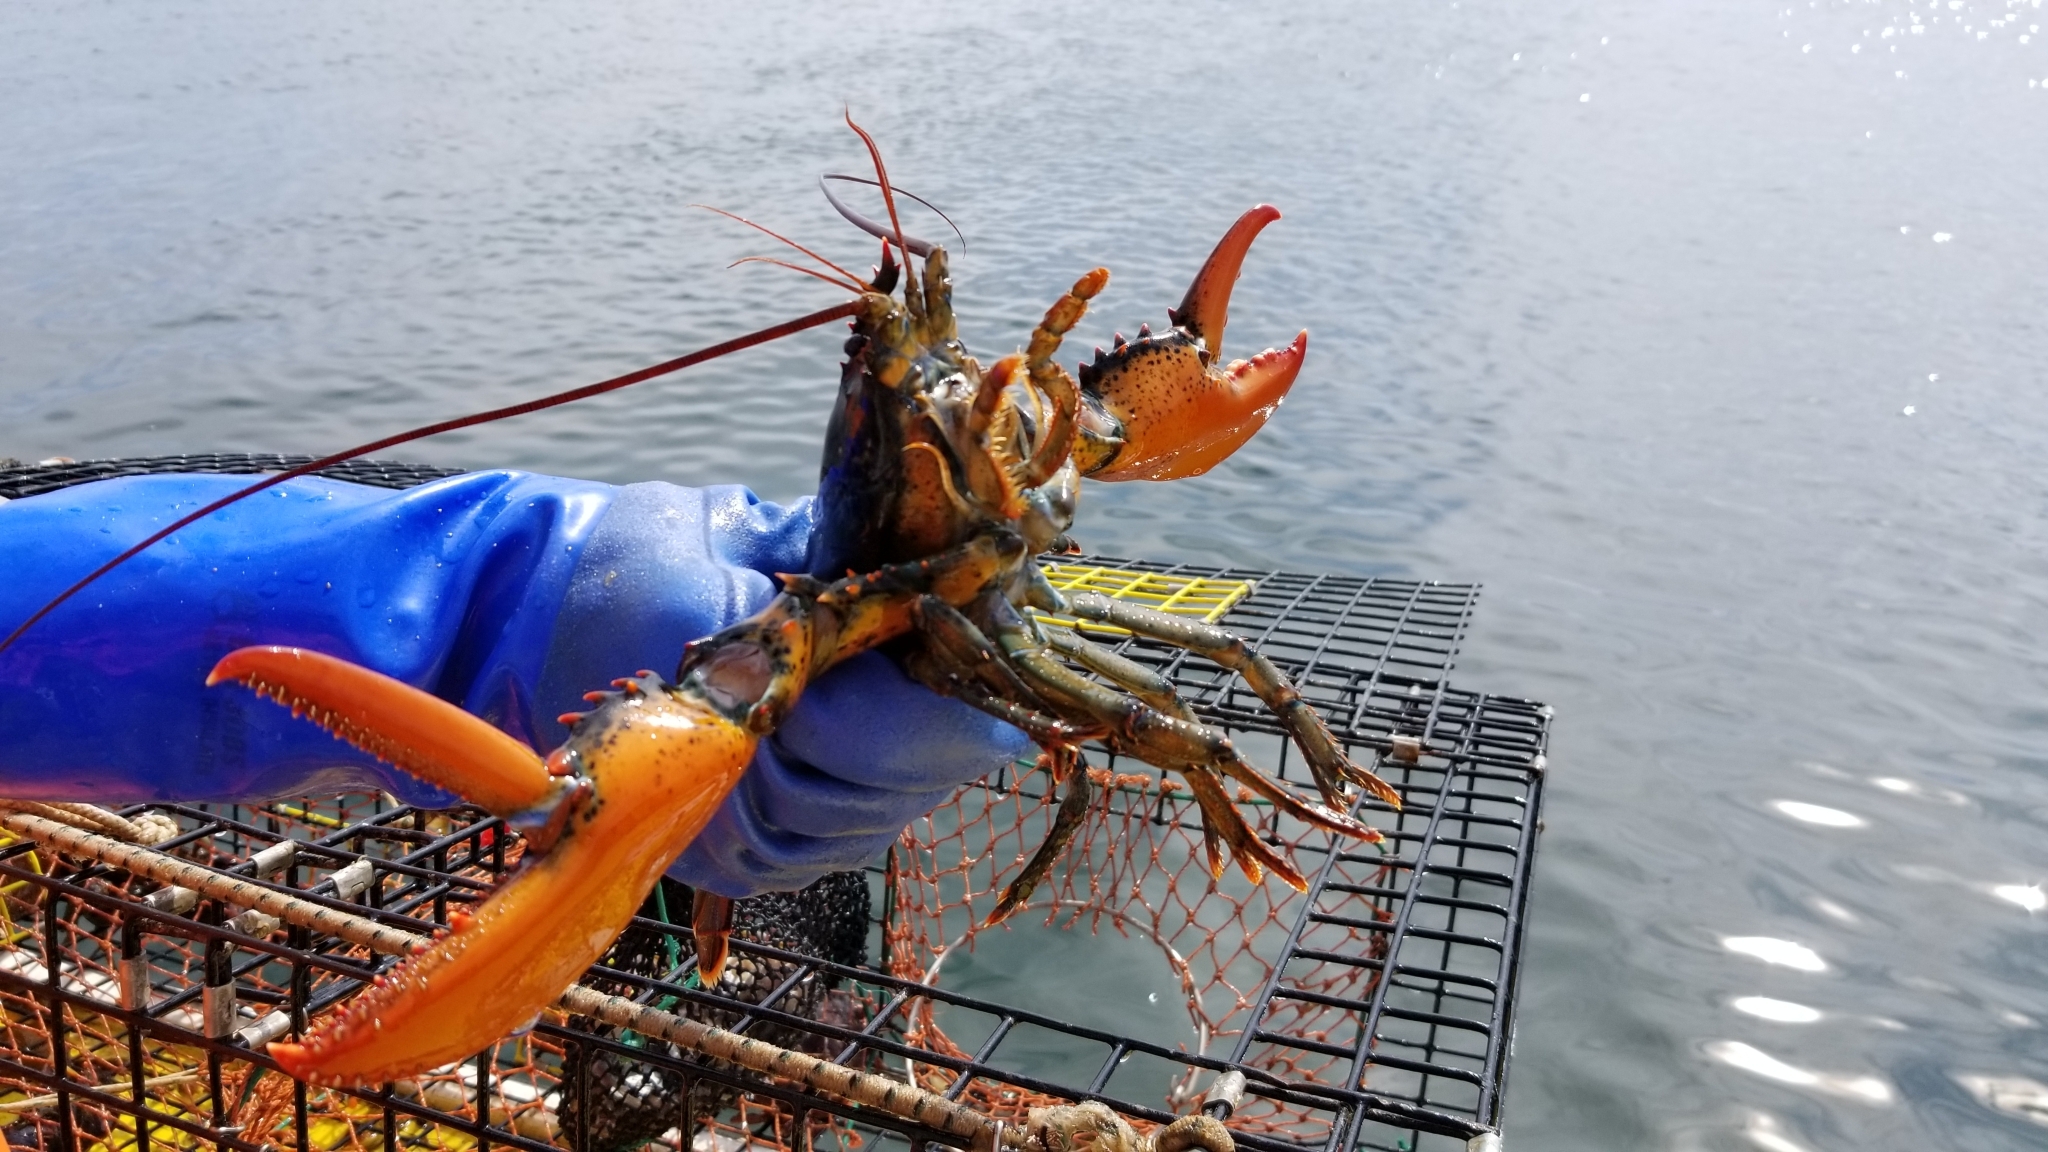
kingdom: Animalia
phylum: Arthropoda
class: Malacostraca
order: Decapoda
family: Nephropidae
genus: Homarus
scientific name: Homarus americanus
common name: American lobster
